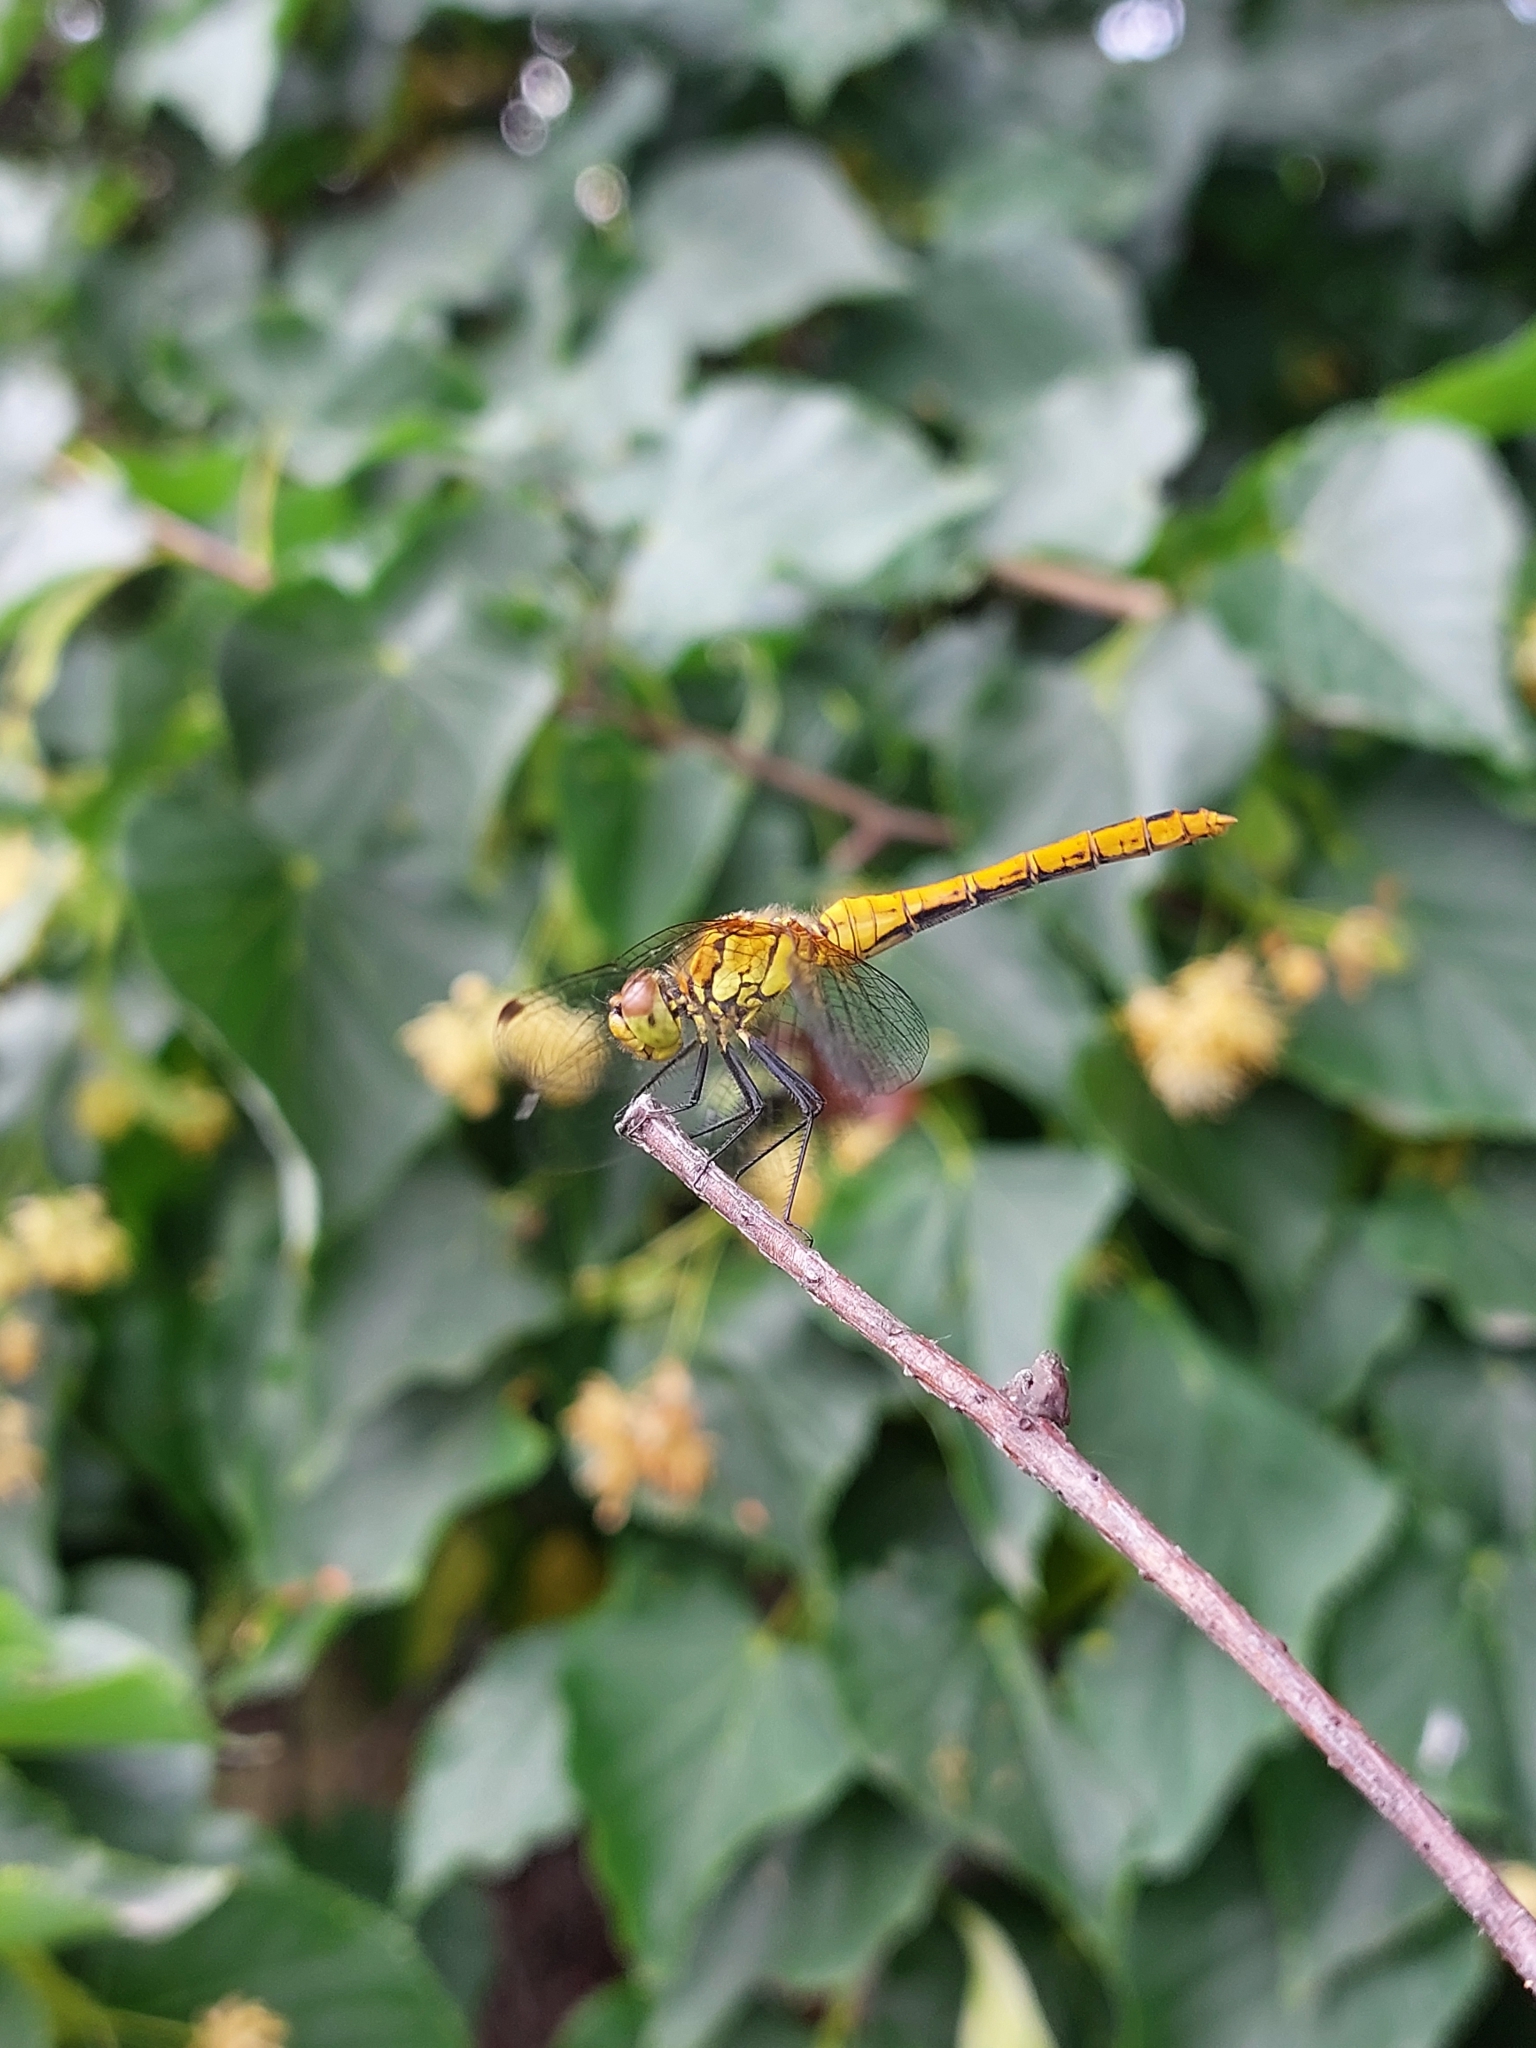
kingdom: Animalia
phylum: Arthropoda
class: Insecta
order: Odonata
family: Libellulidae
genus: Sympetrum
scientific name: Sympetrum sanguineum
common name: Ruddy darter
